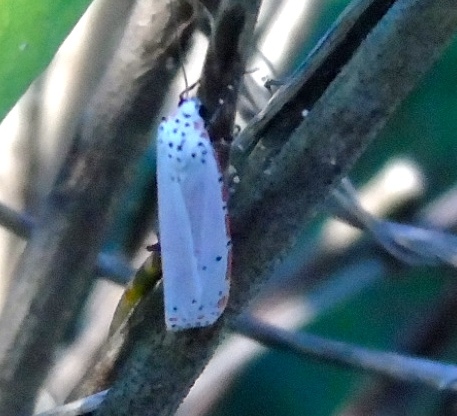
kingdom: Animalia
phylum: Arthropoda
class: Insecta
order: Lepidoptera
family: Erebidae
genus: Utetheisa
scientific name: Utetheisa ornatrix
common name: Beautiful utetheisa
